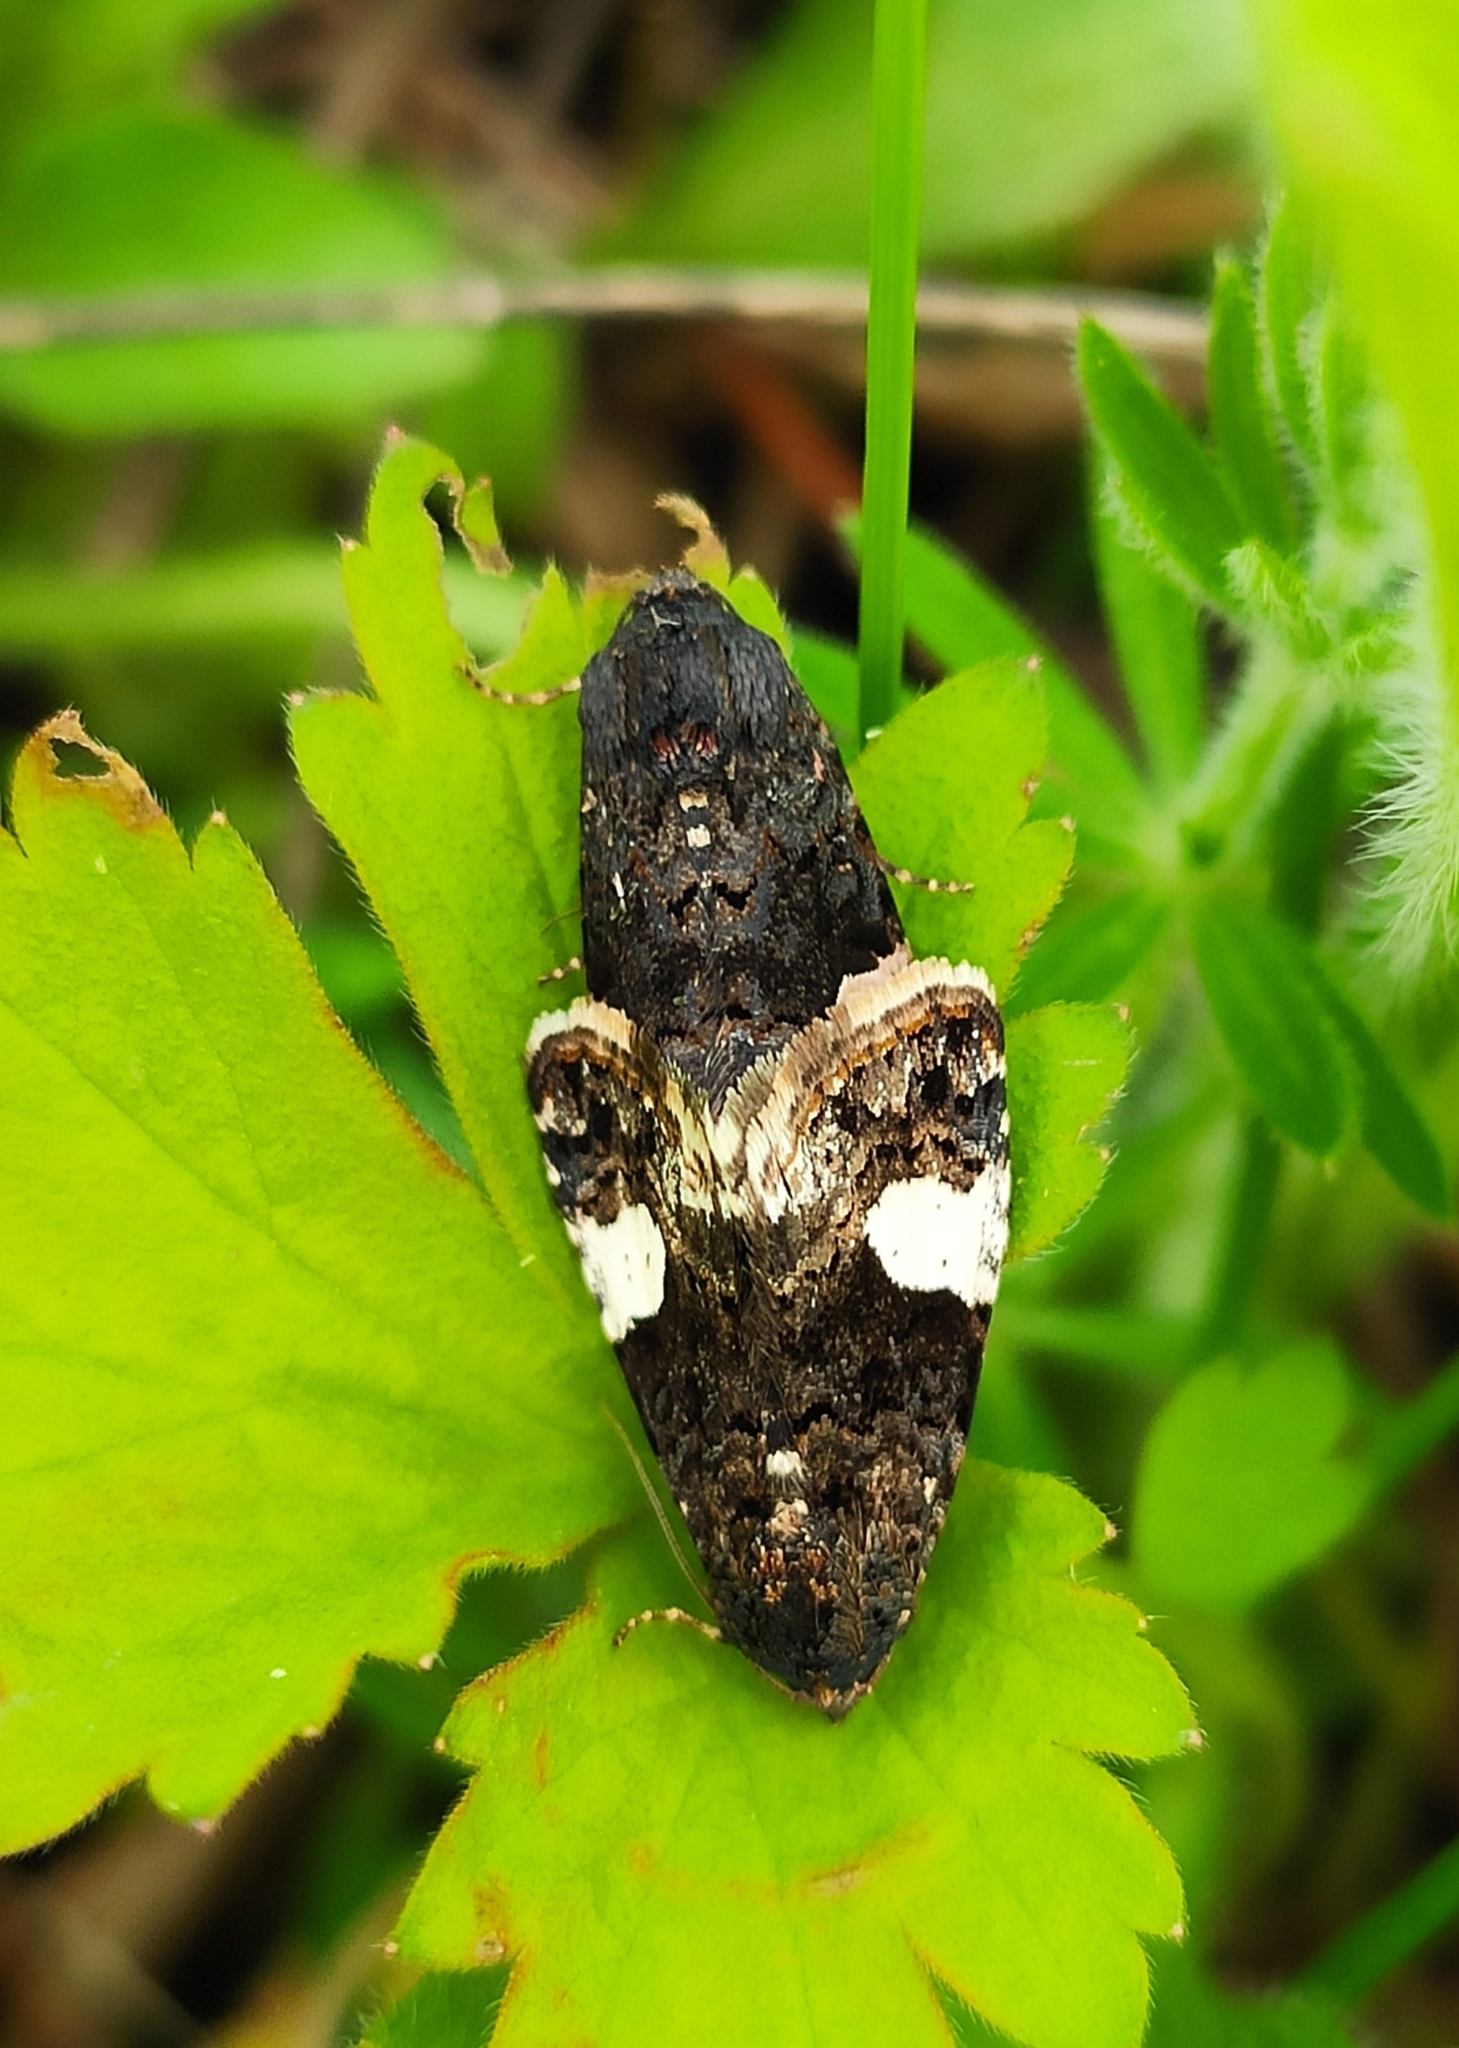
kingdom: Animalia
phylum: Arthropoda
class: Insecta
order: Lepidoptera
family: Erebidae
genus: Tyta
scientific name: Tyta luctuosa
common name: Four-spotted
